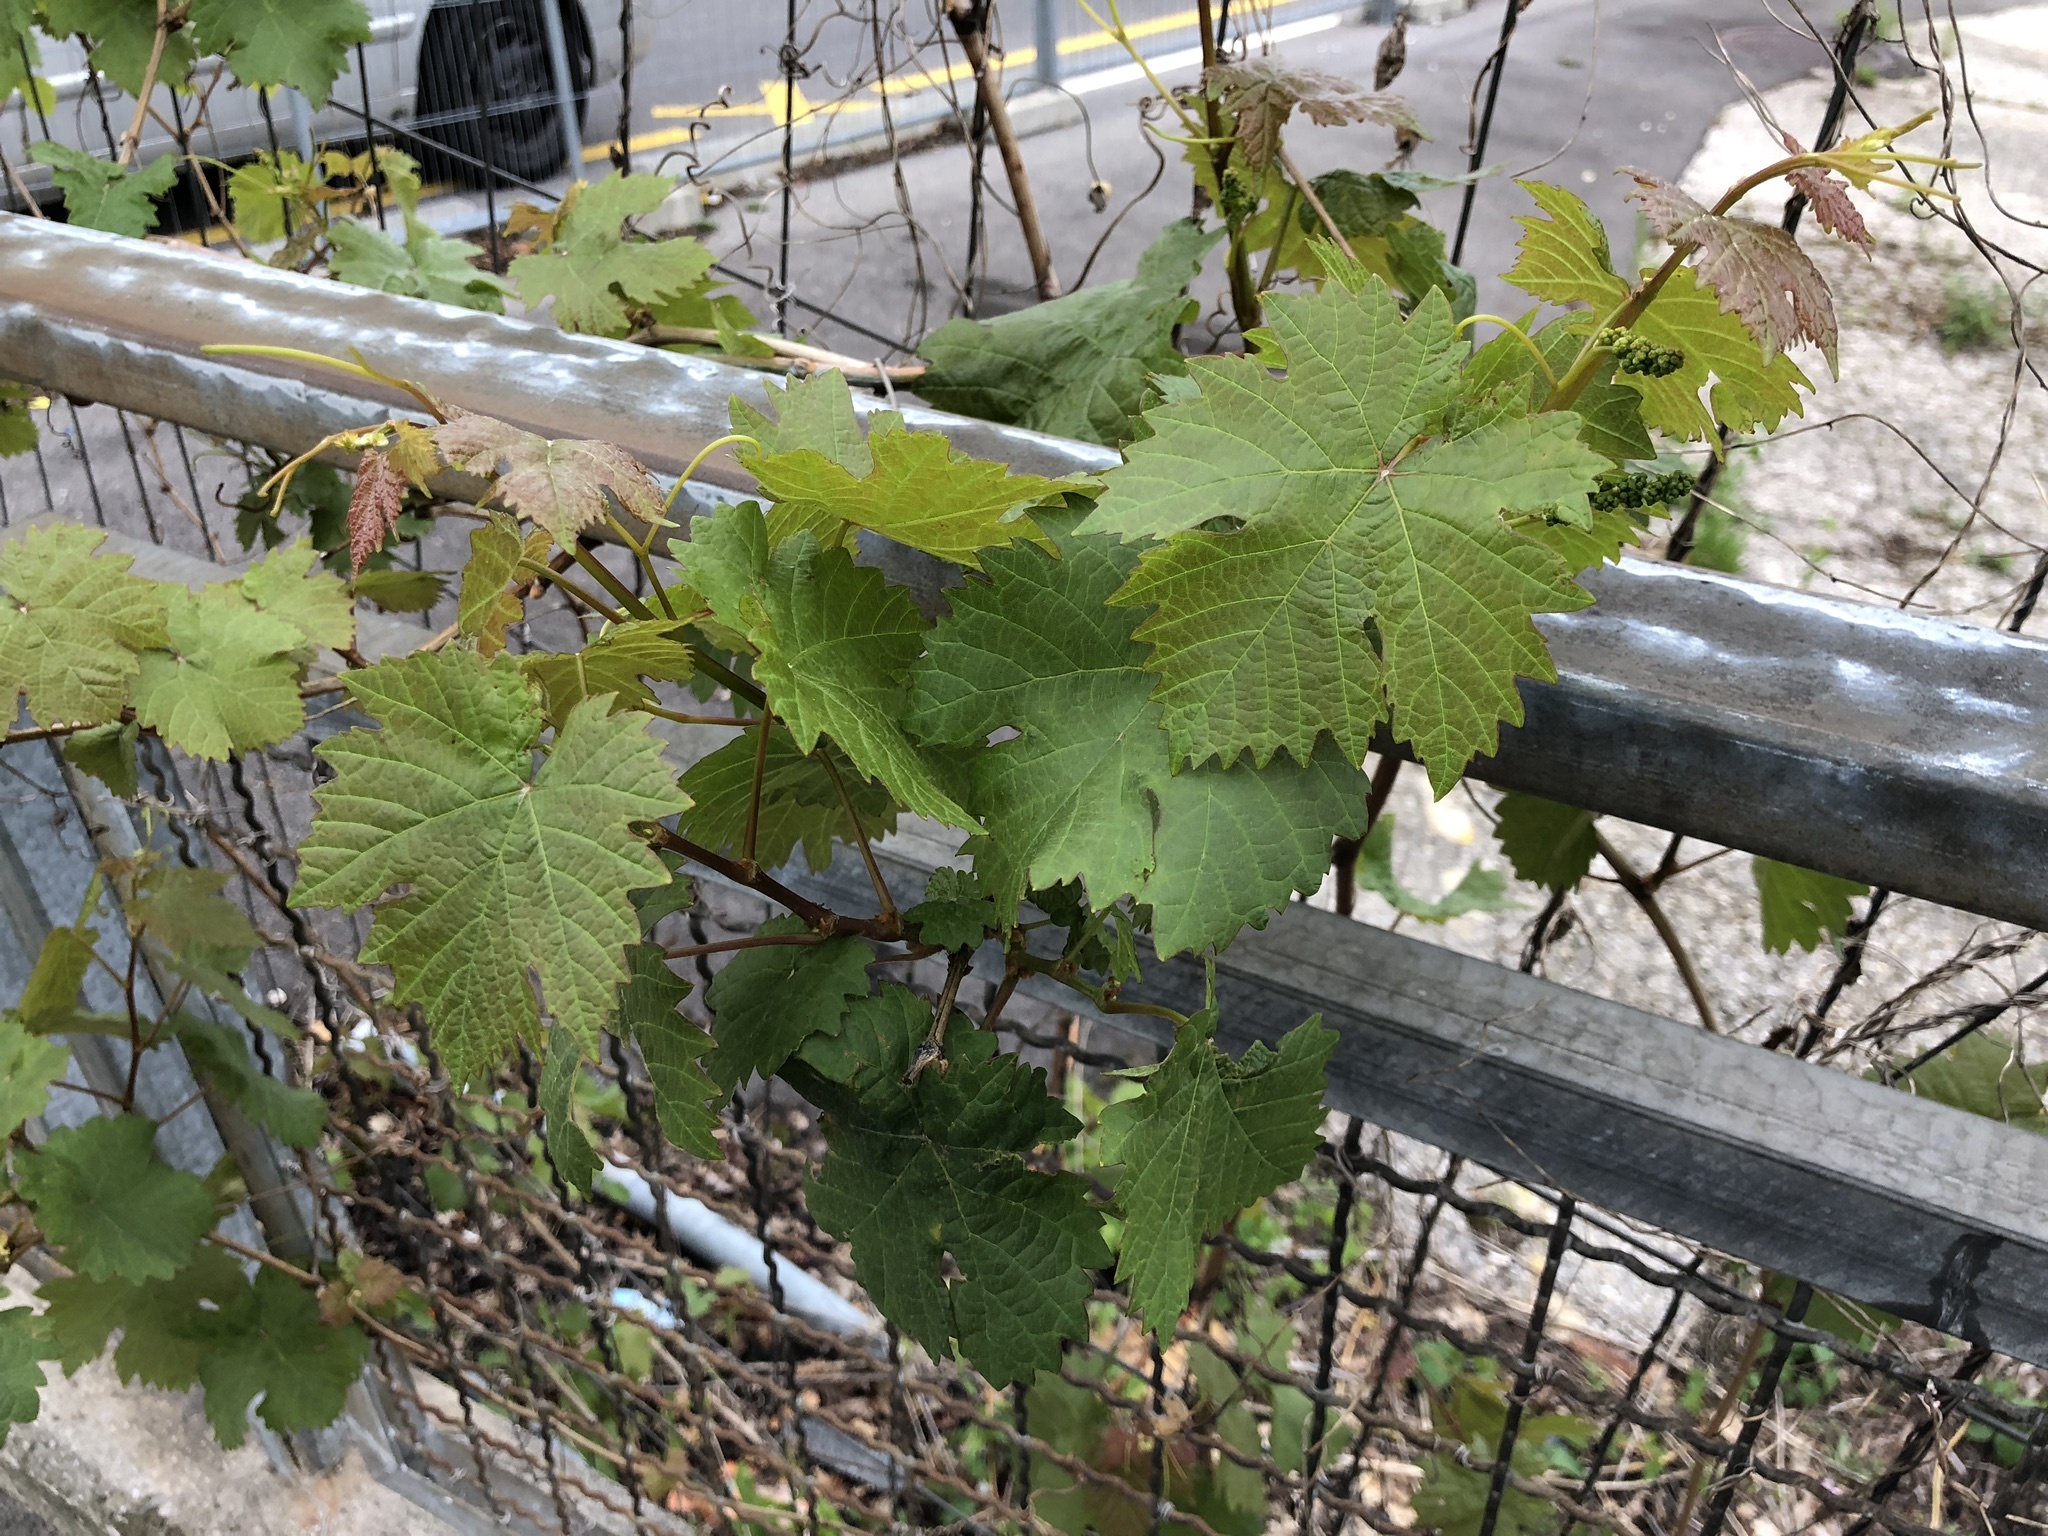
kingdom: Plantae
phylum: Tracheophyta
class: Magnoliopsida
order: Vitales
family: Vitaceae
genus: Vitis
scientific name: Vitis vinifera
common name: Grape-vine
